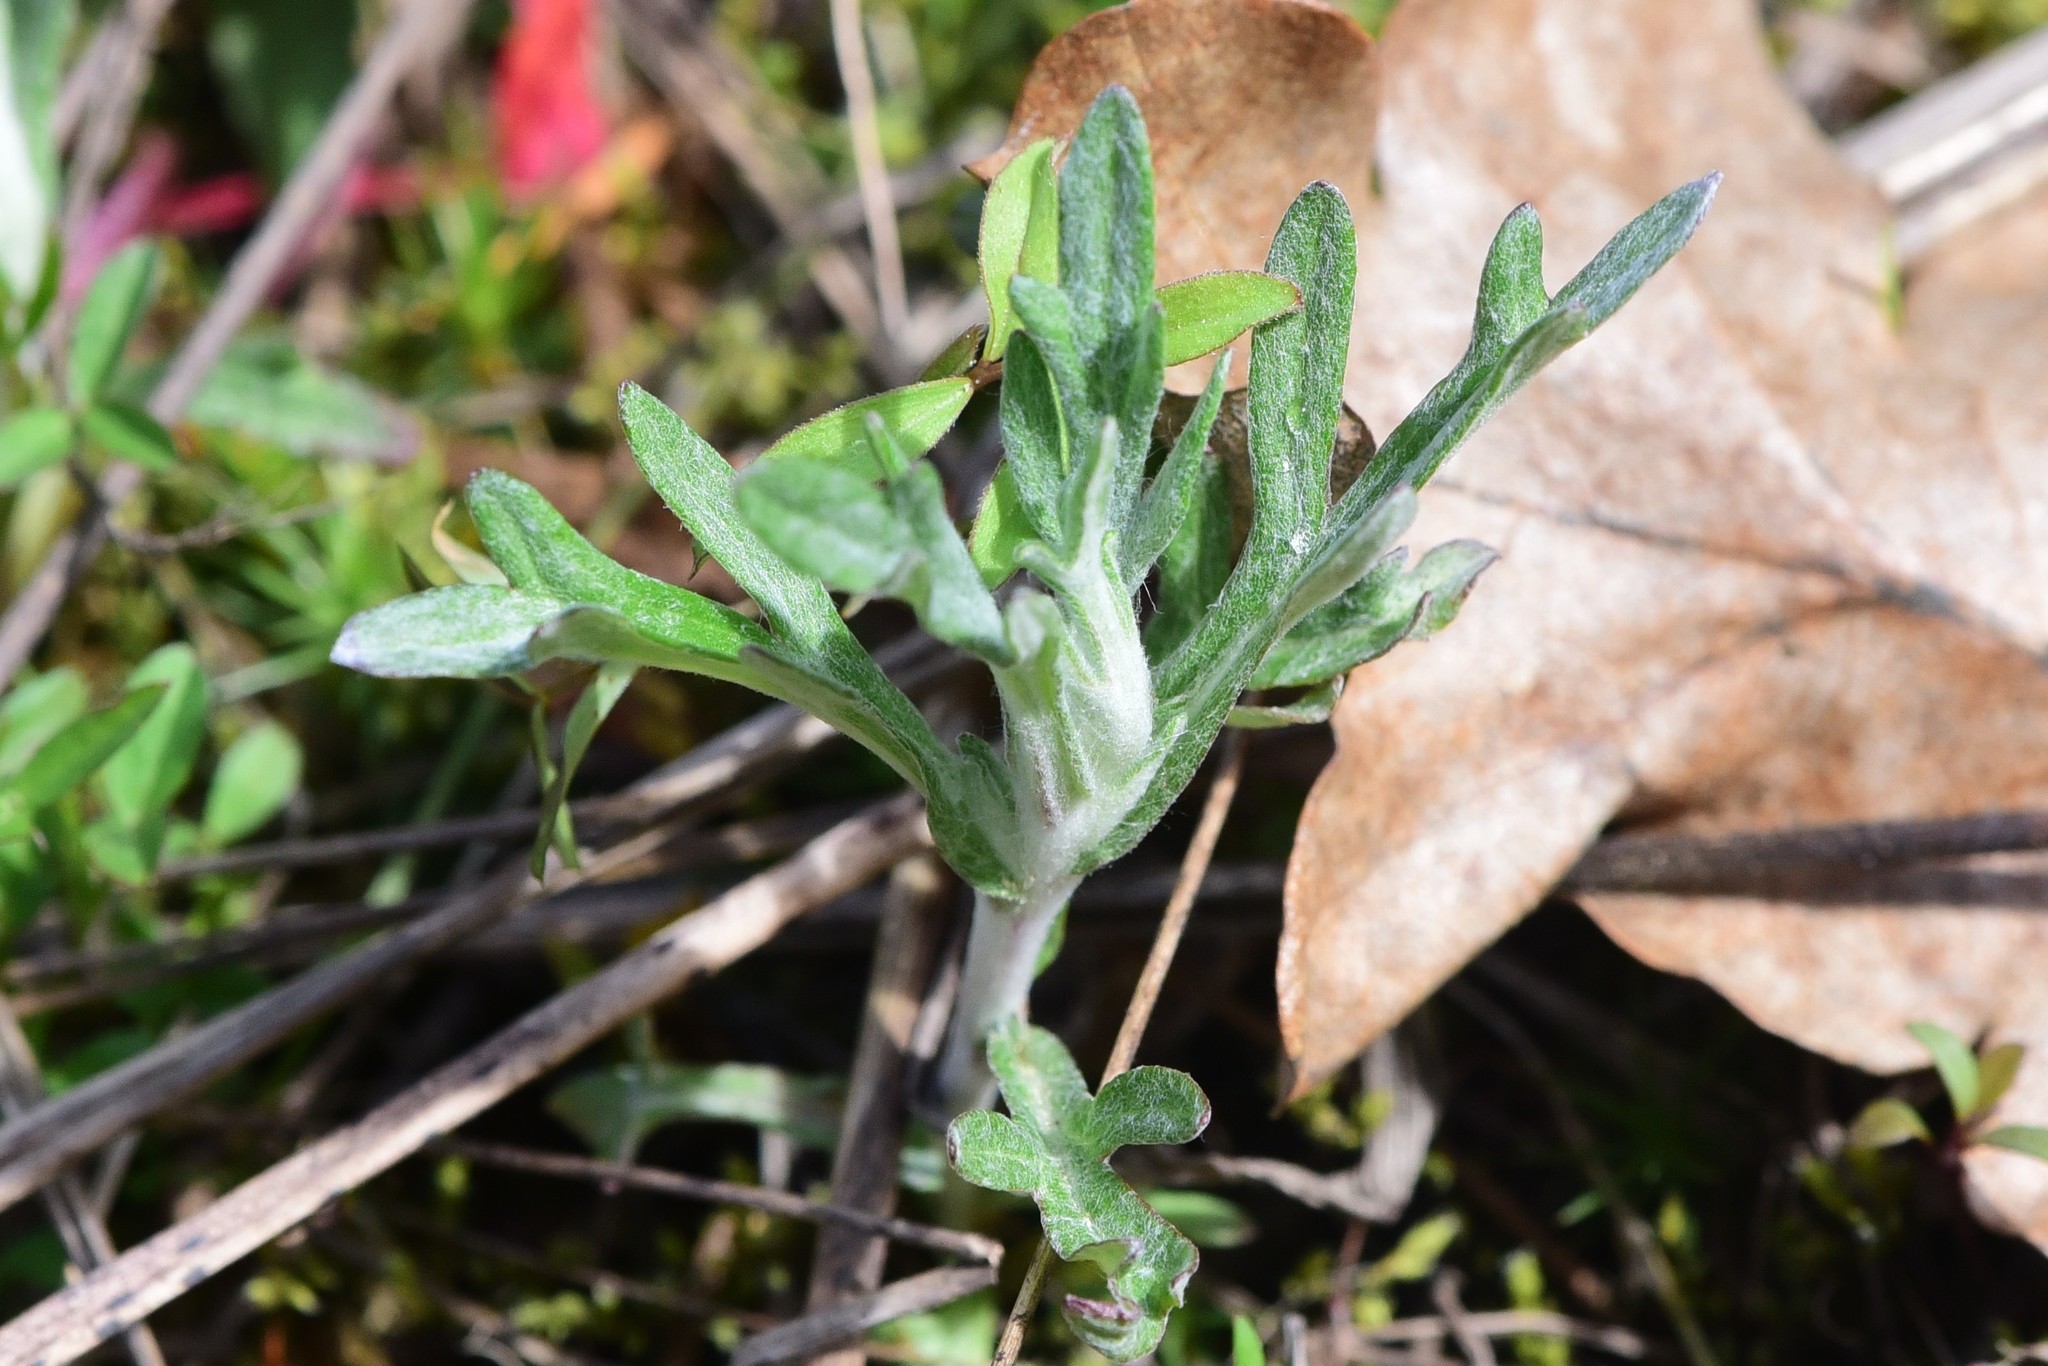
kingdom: Plantae
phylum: Tracheophyta
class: Magnoliopsida
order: Asterales
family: Asteraceae
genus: Eriophyllum
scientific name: Eriophyllum lanatum
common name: Common woolly-sunflower
